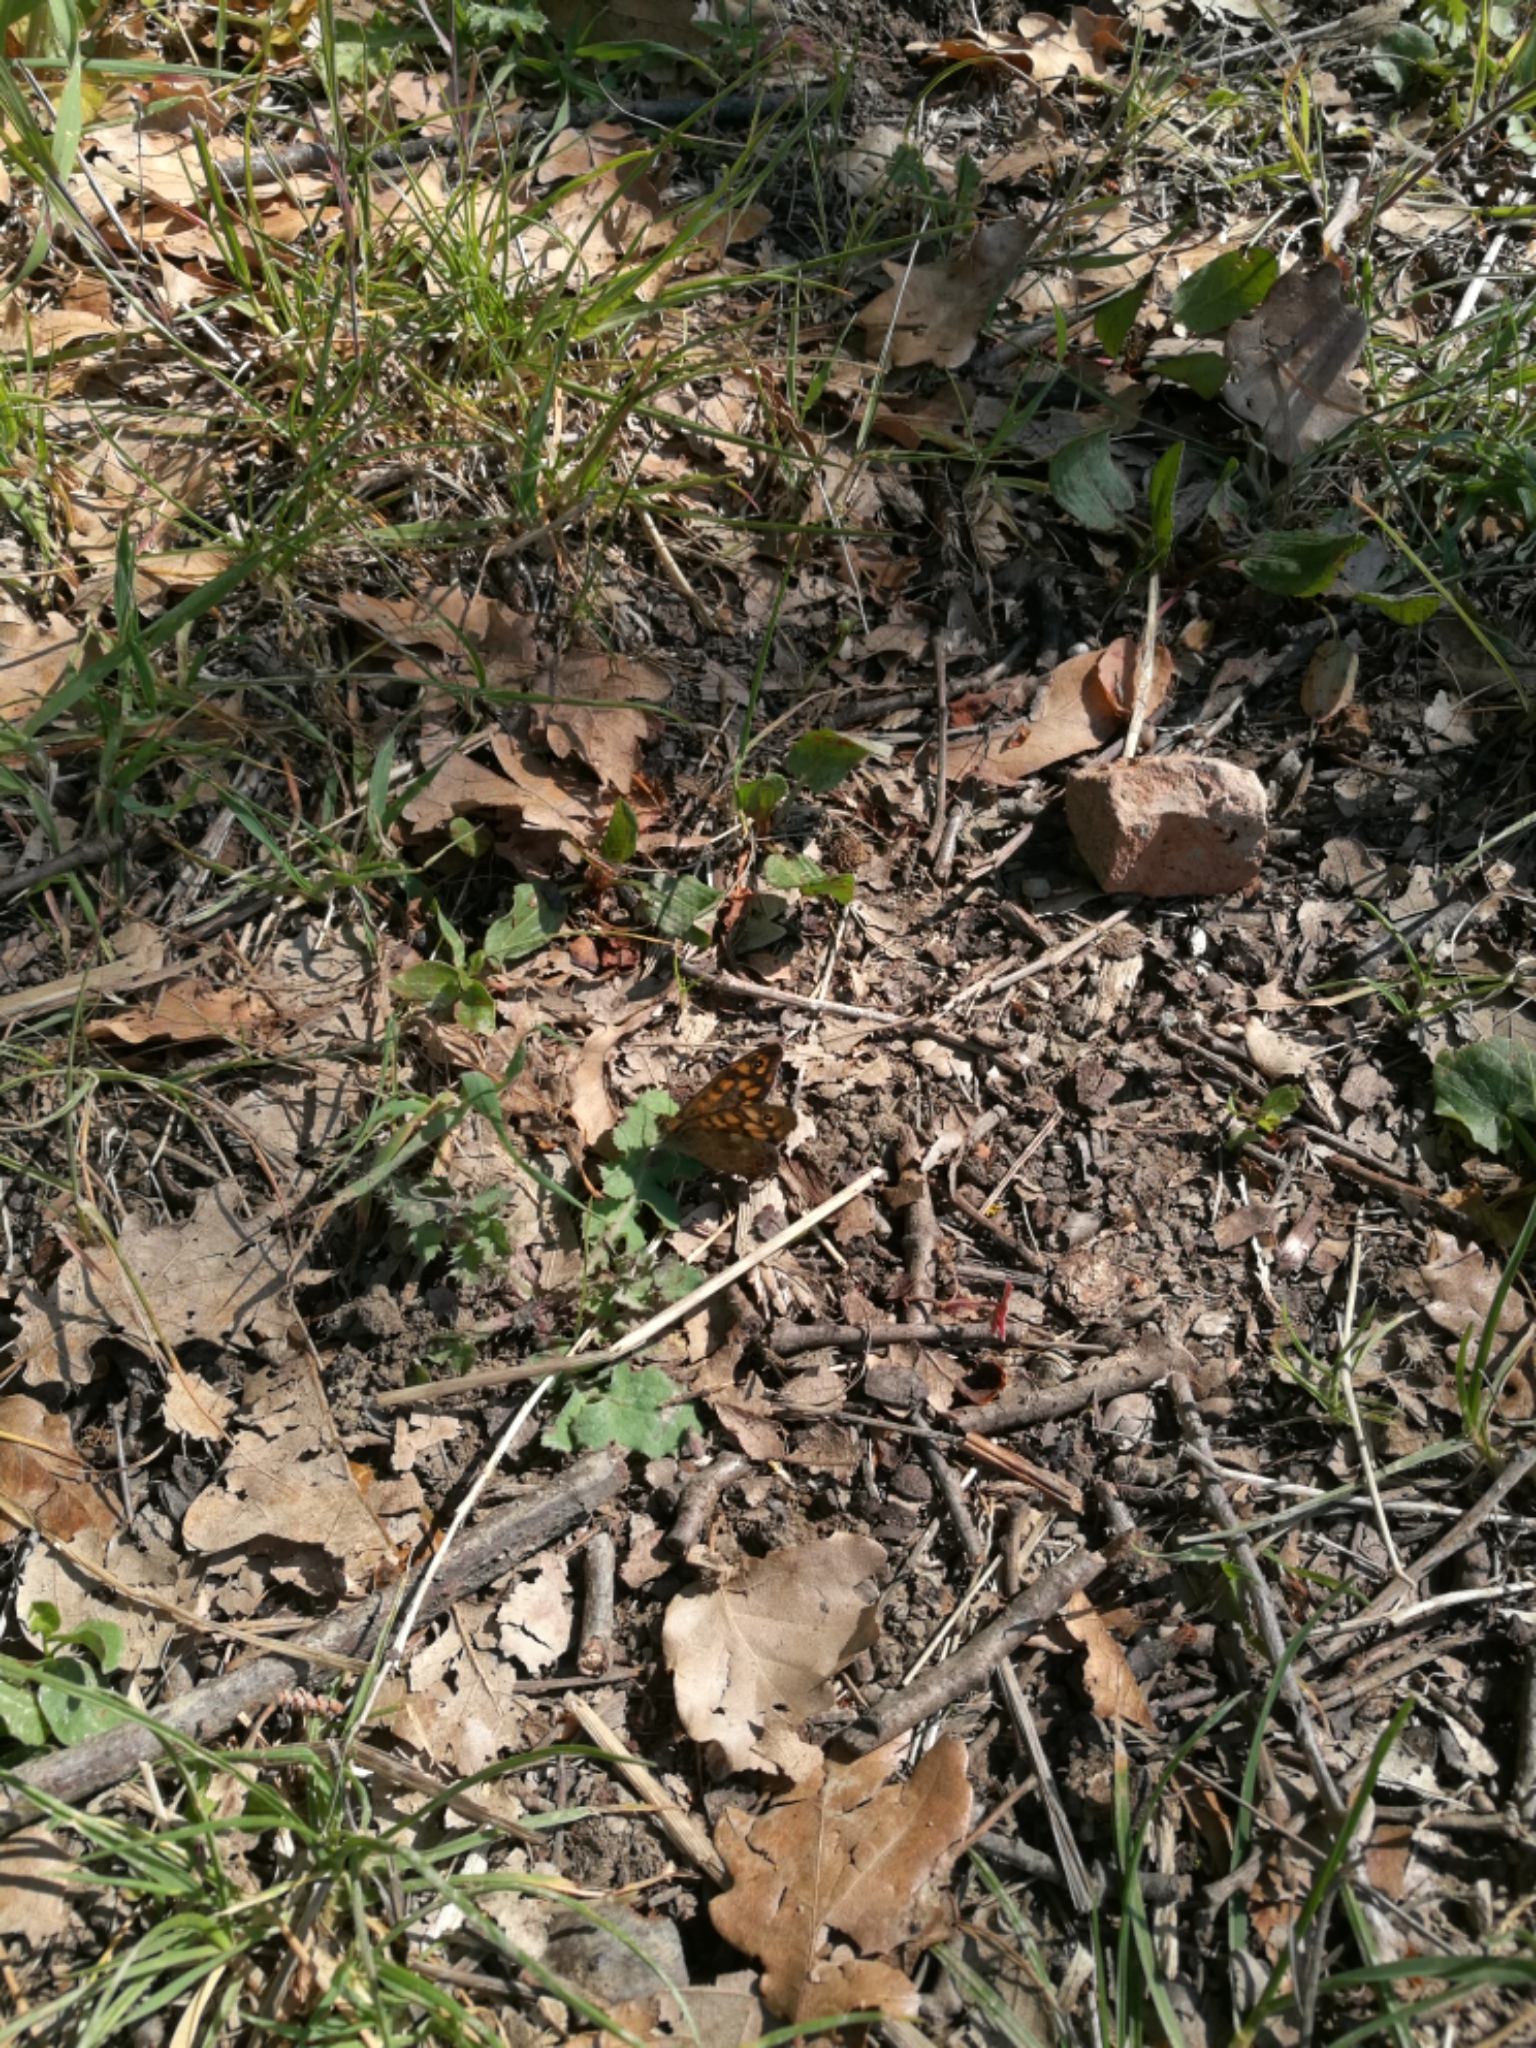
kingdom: Animalia
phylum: Arthropoda
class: Insecta
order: Lepidoptera
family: Nymphalidae
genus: Pararge
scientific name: Pararge aegeria
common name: Speckled wood
